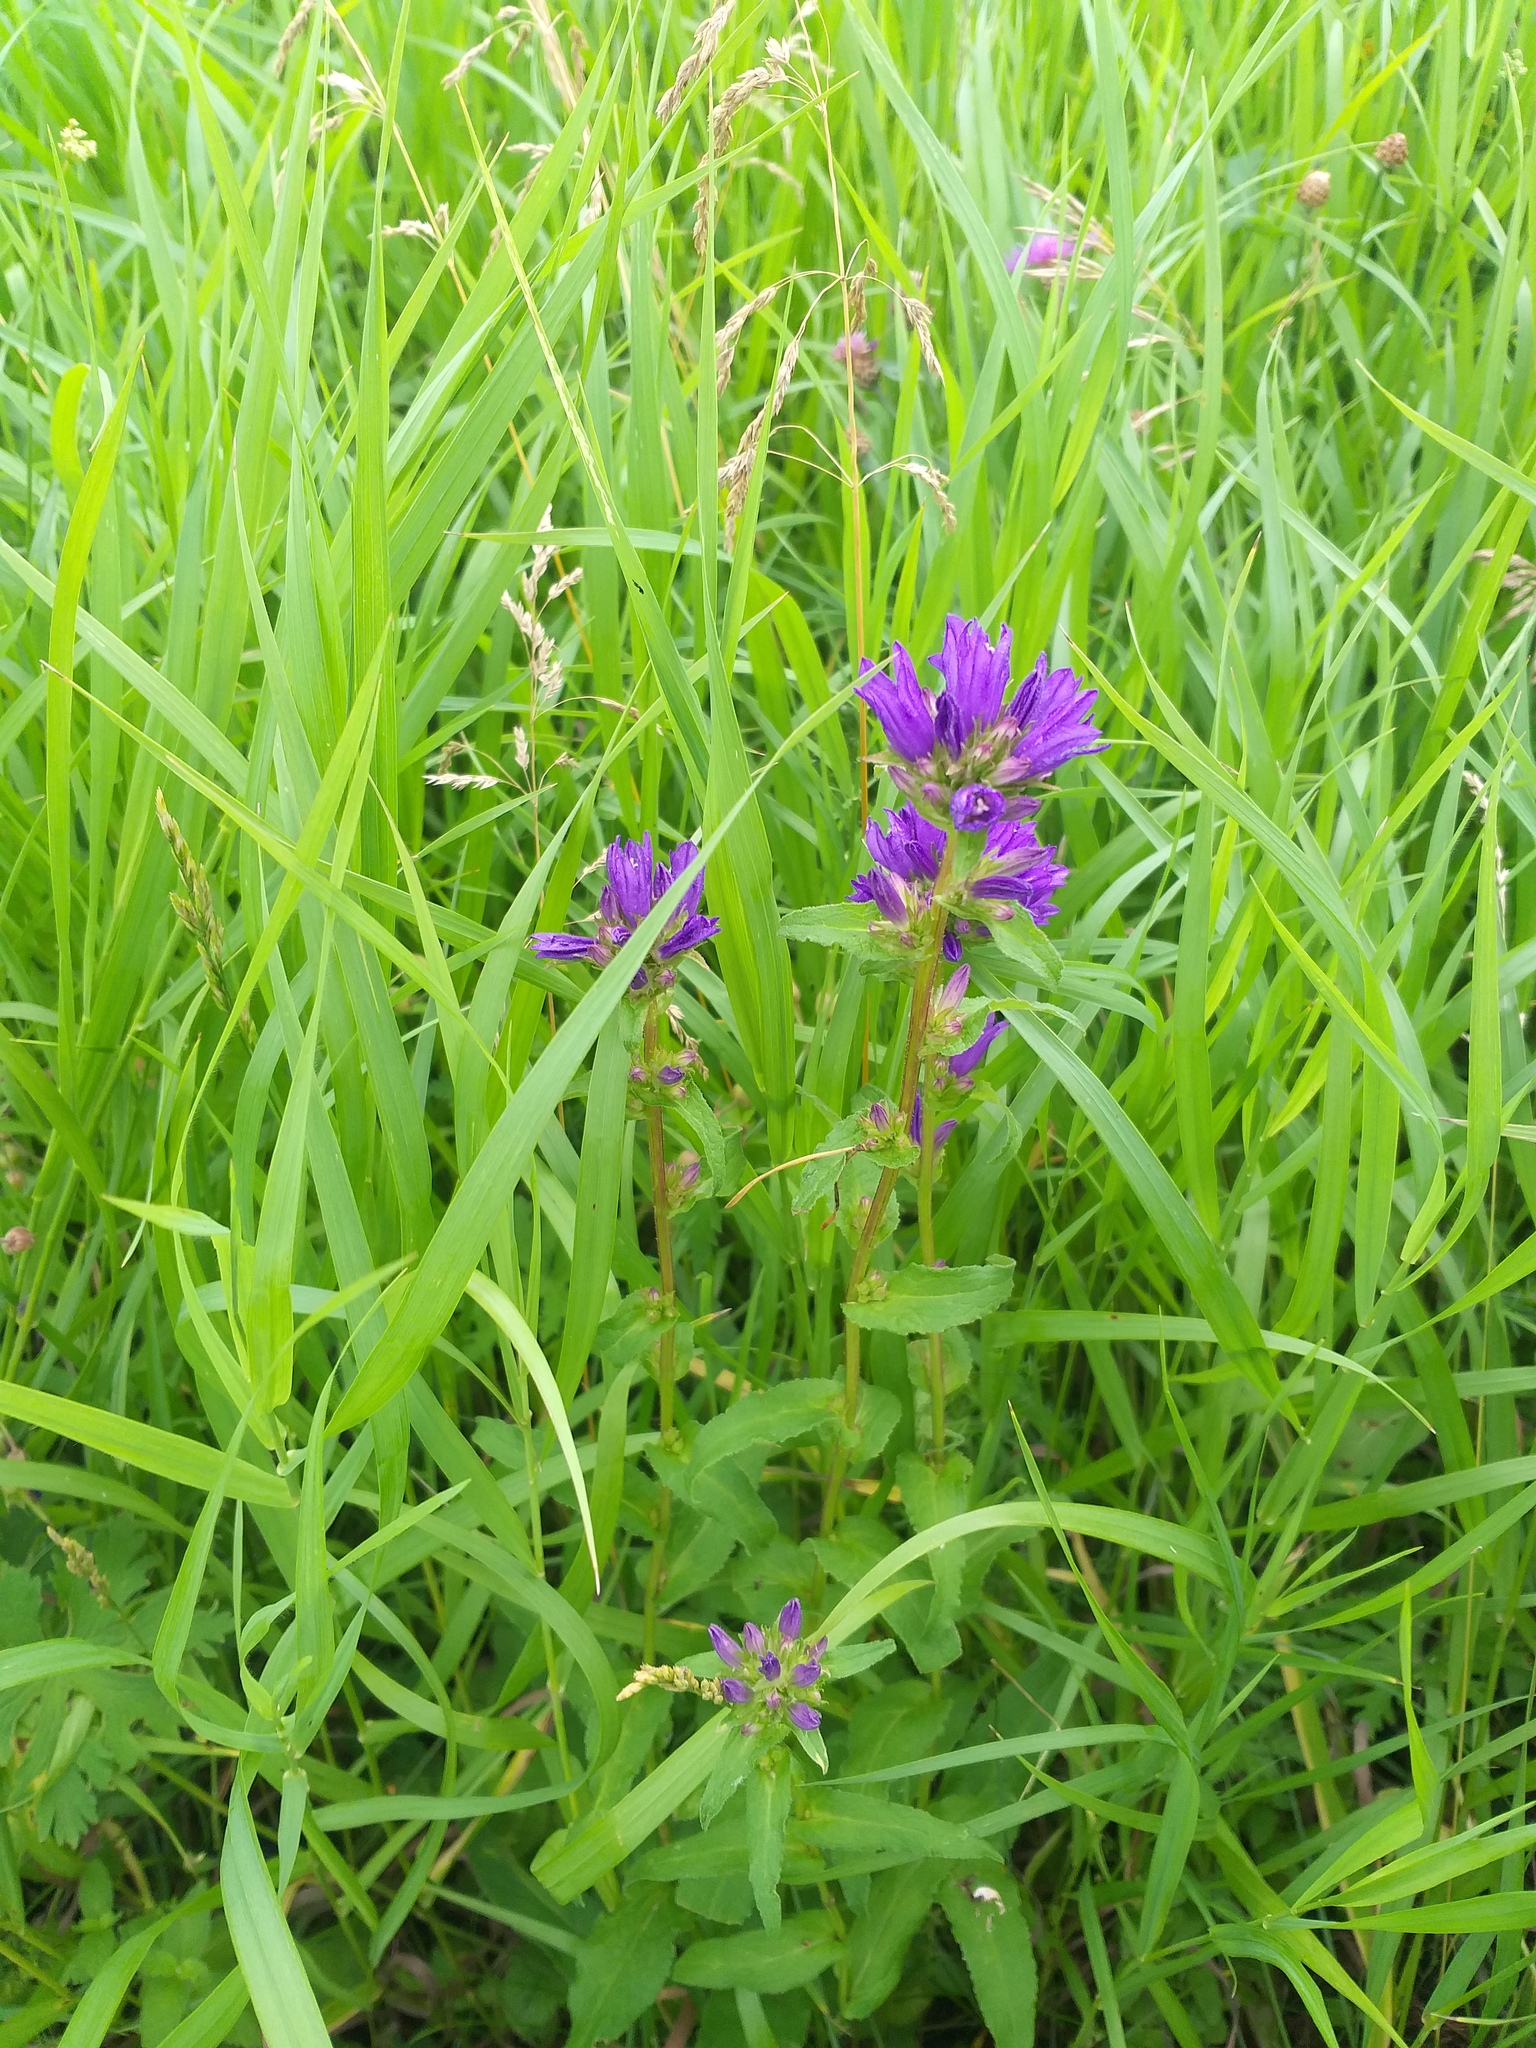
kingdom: Plantae
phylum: Tracheophyta
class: Magnoliopsida
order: Asterales
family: Campanulaceae
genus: Campanula
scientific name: Campanula glomerata
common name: Clustered bellflower
